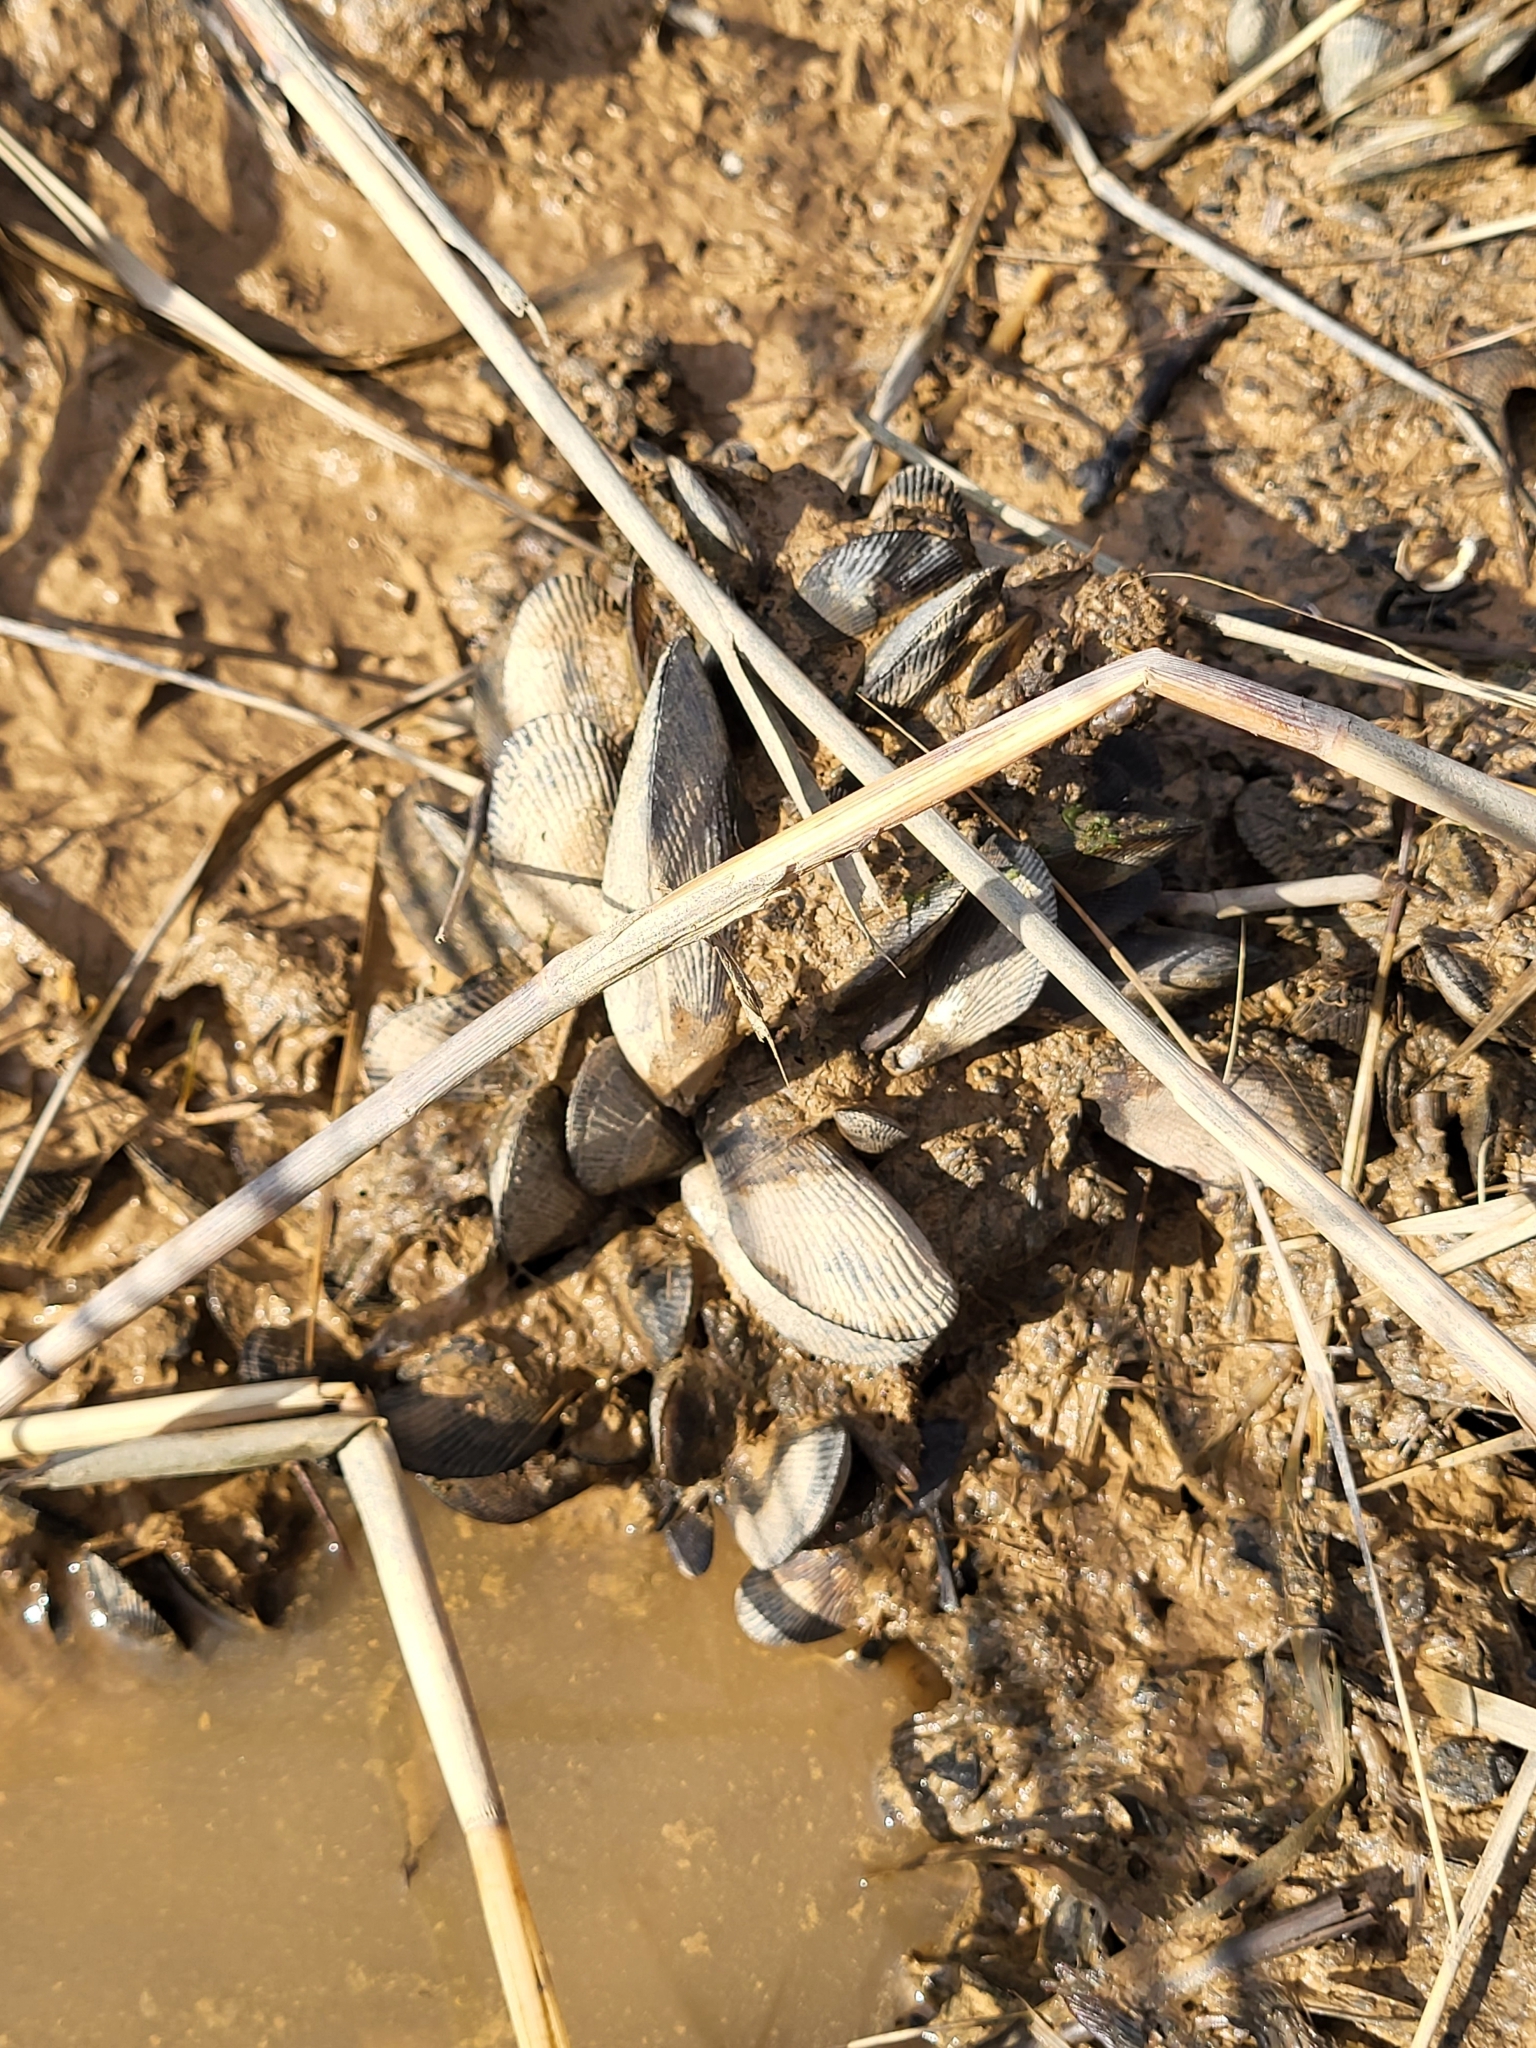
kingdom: Animalia
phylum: Mollusca
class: Bivalvia
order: Mytilida
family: Mytilidae
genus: Geukensia
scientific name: Geukensia demissa
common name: Ribbed mussel
